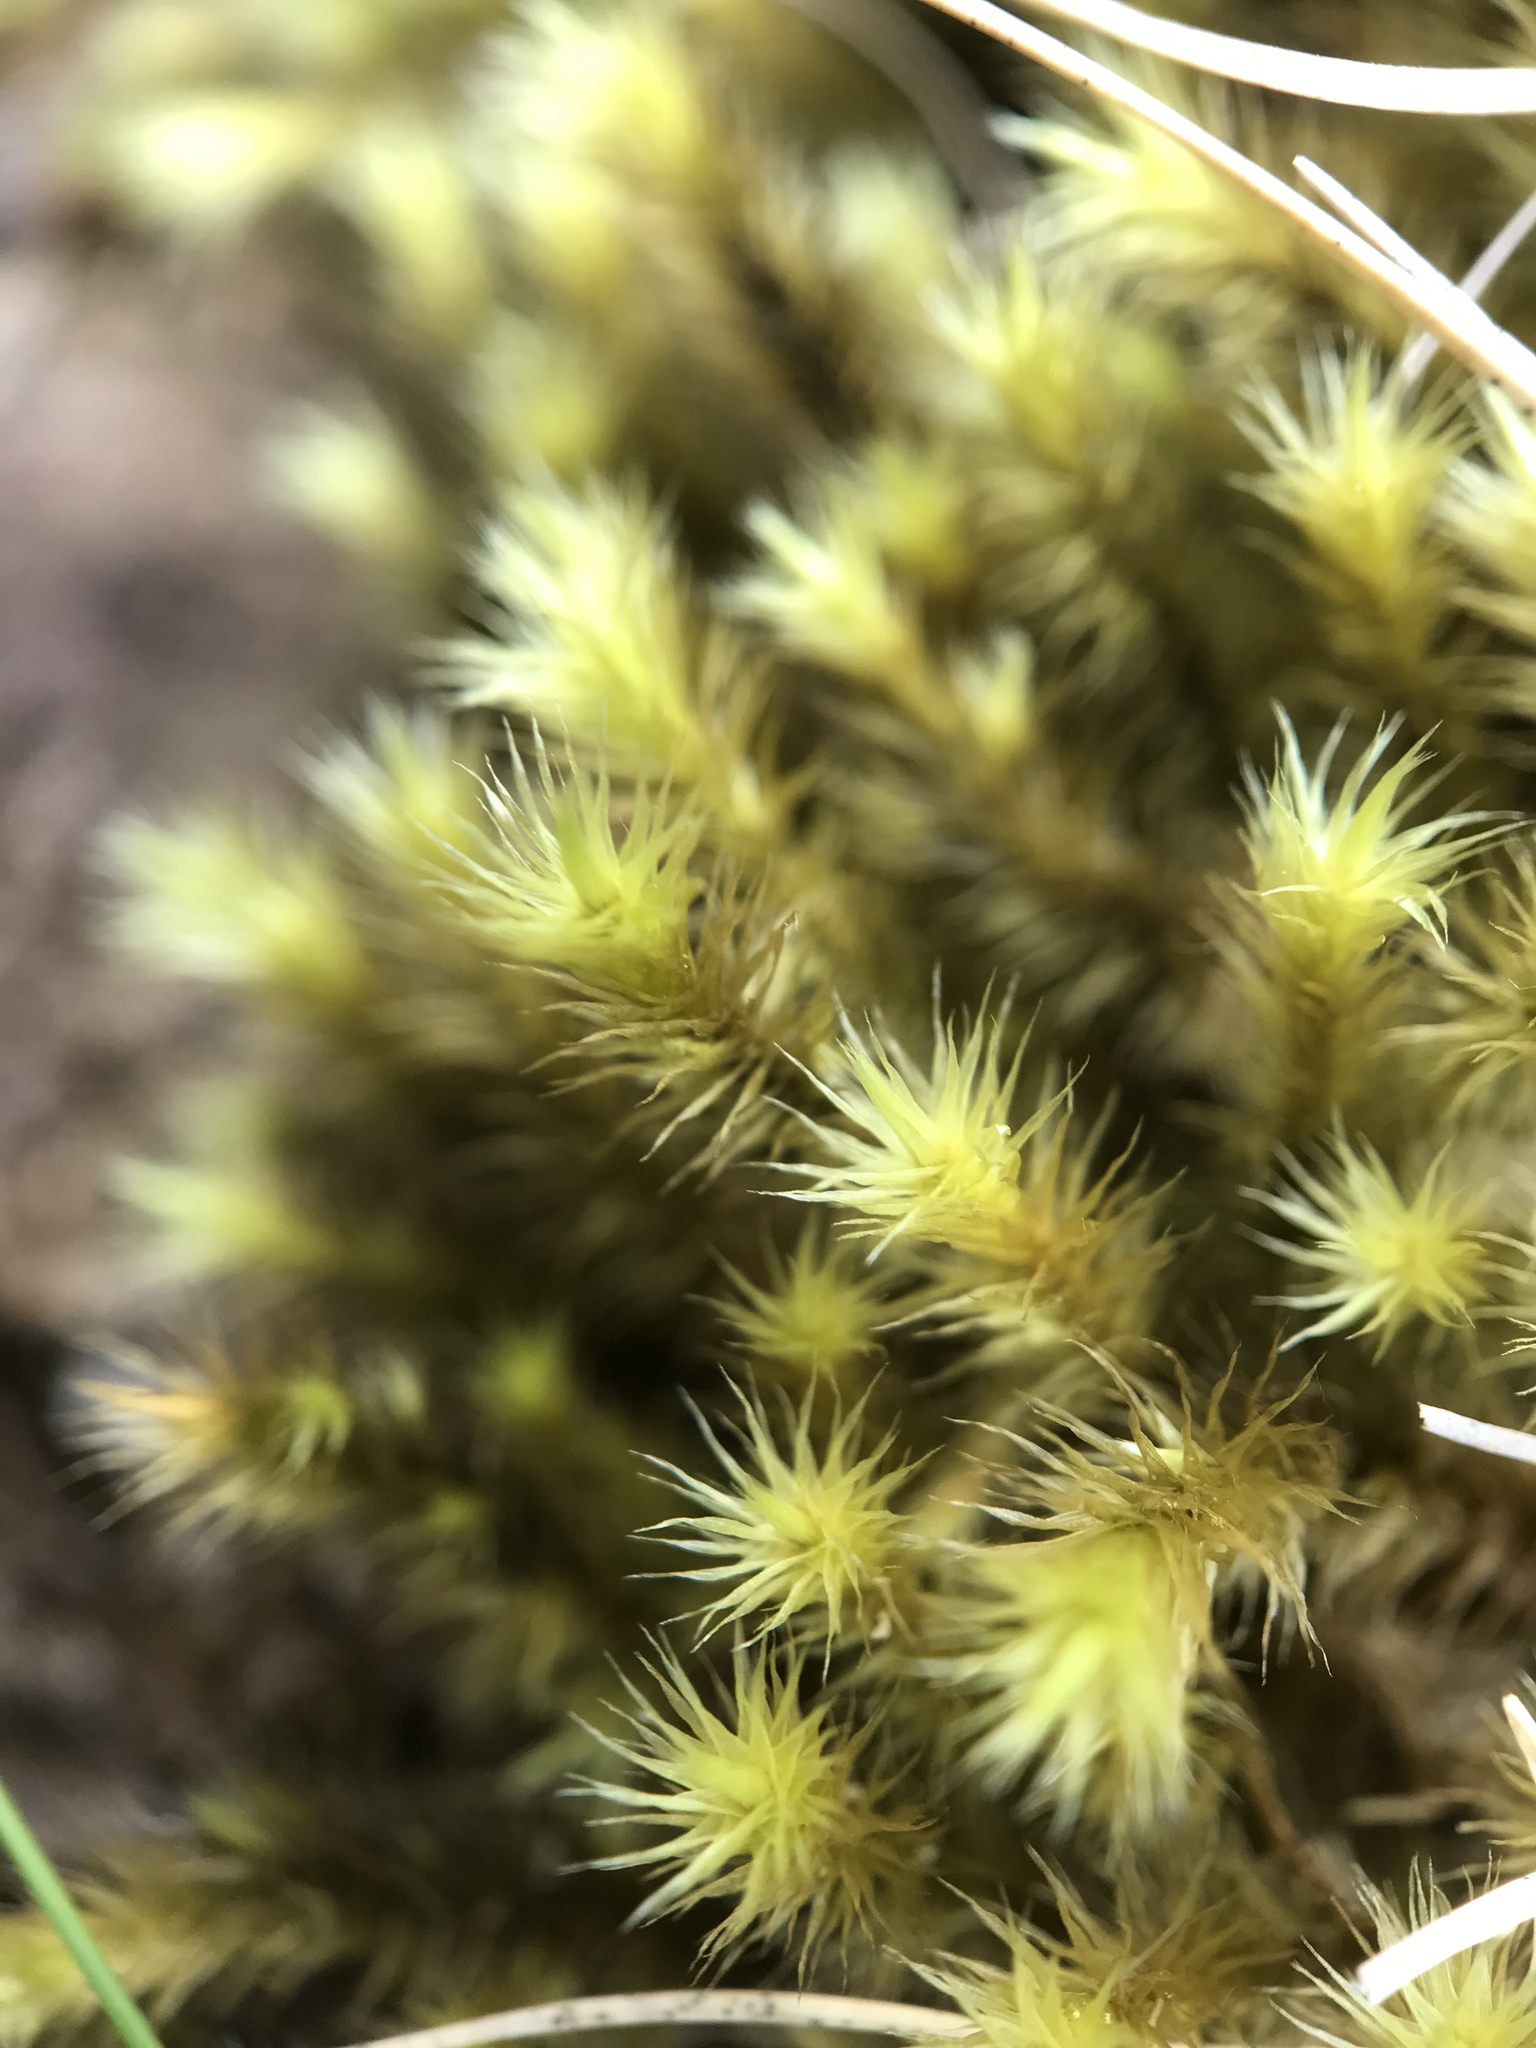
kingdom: Plantae
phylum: Bryophyta
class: Bryopsida
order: Bartramiales
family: Bartramiaceae
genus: Breutelia
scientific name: Breutelia chrysocoma
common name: Bottle-brush moss
